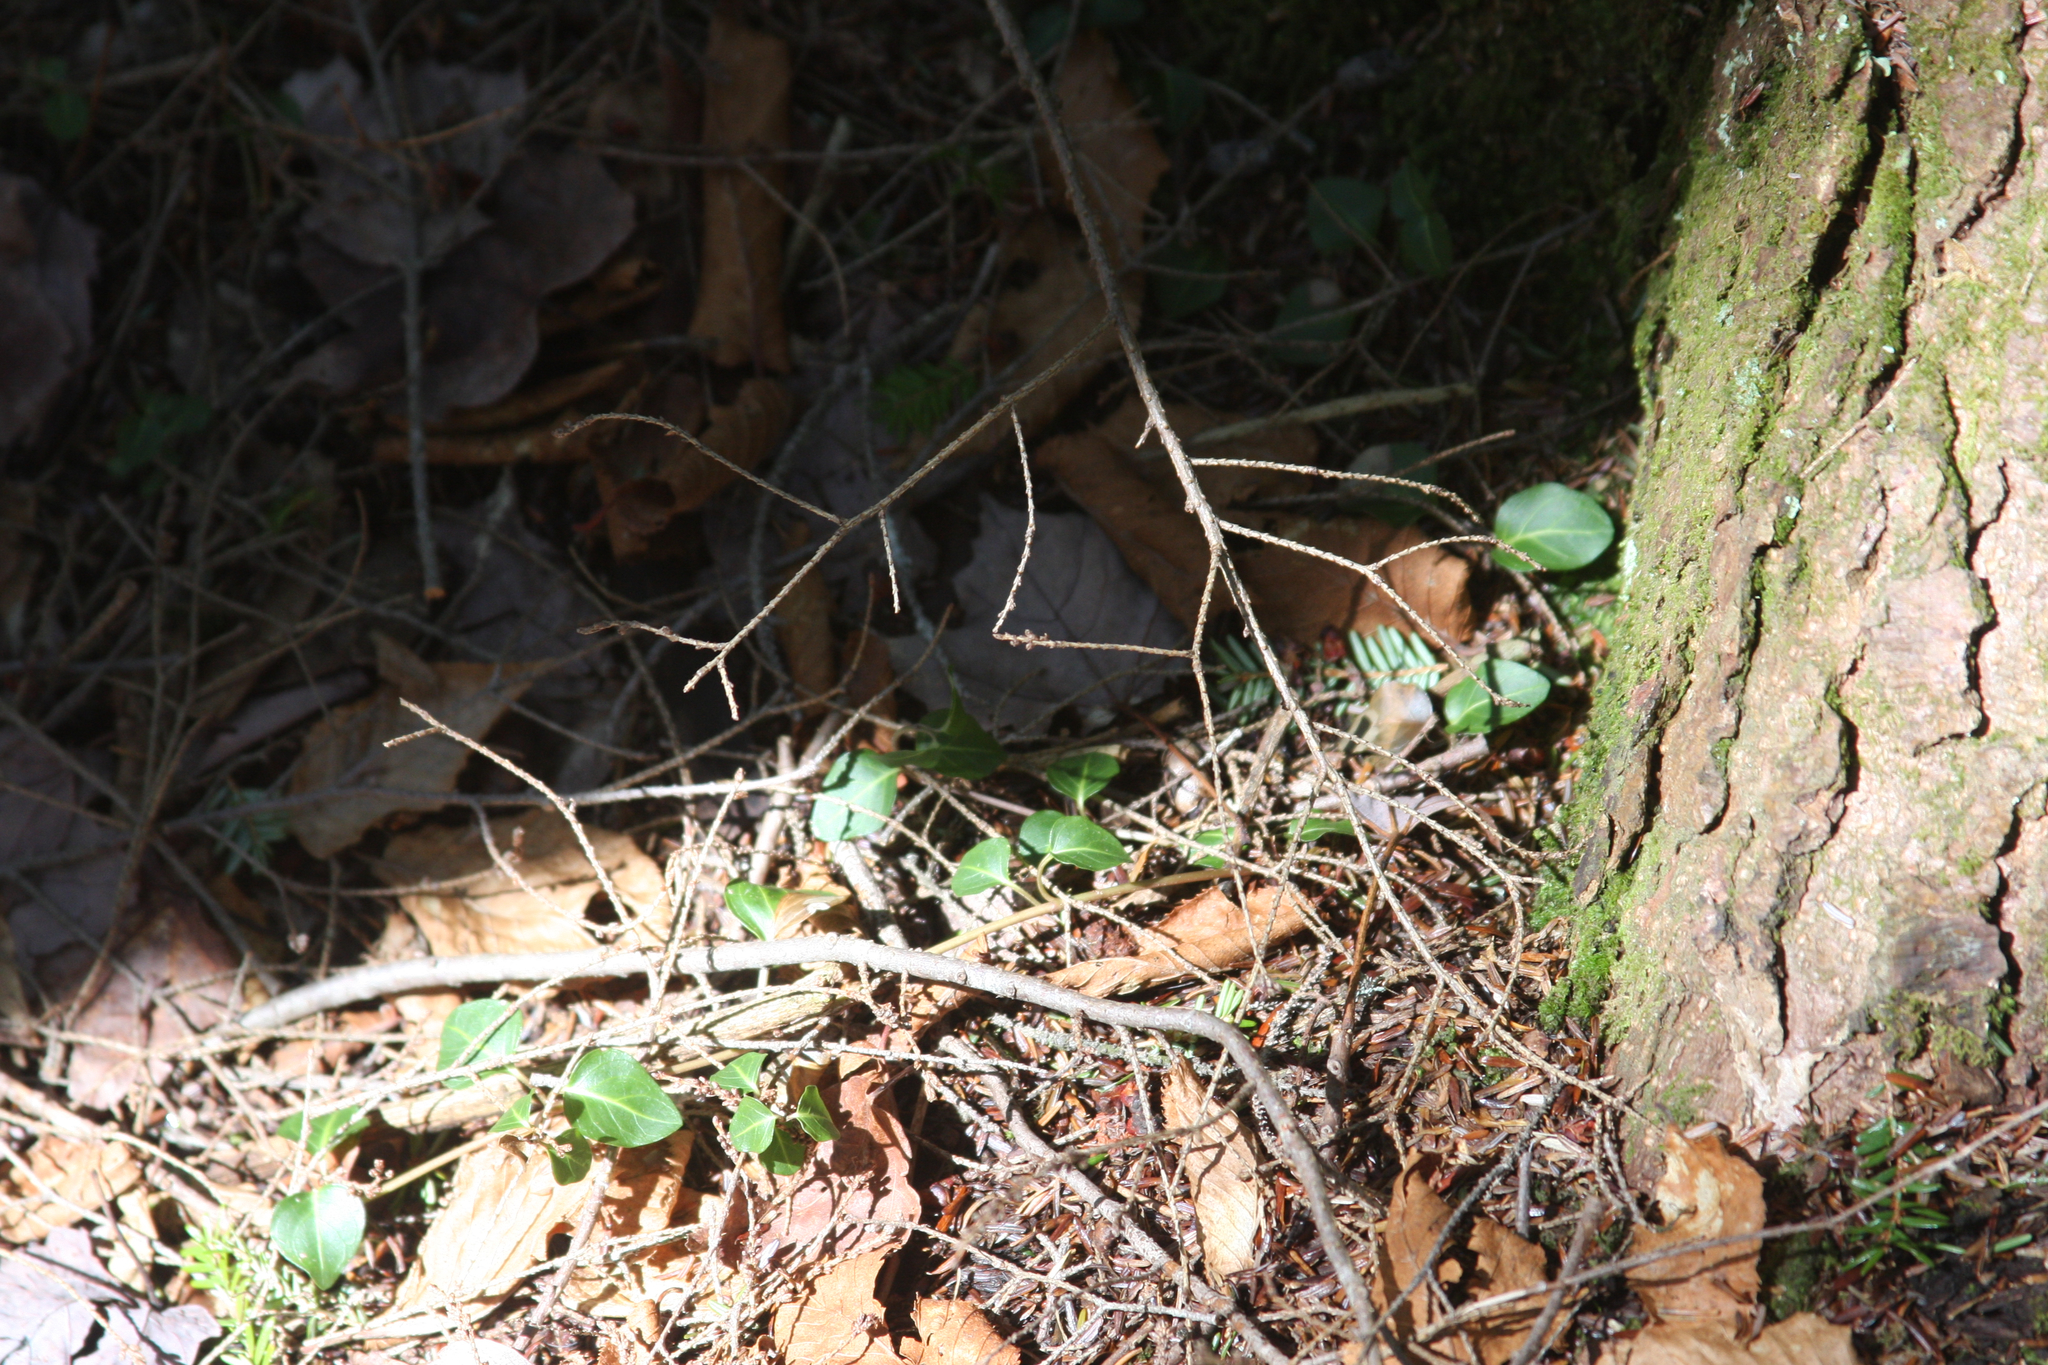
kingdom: Plantae
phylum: Tracheophyta
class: Magnoliopsida
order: Gentianales
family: Rubiaceae
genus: Mitchella
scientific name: Mitchella repens
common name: Partridge-berry
